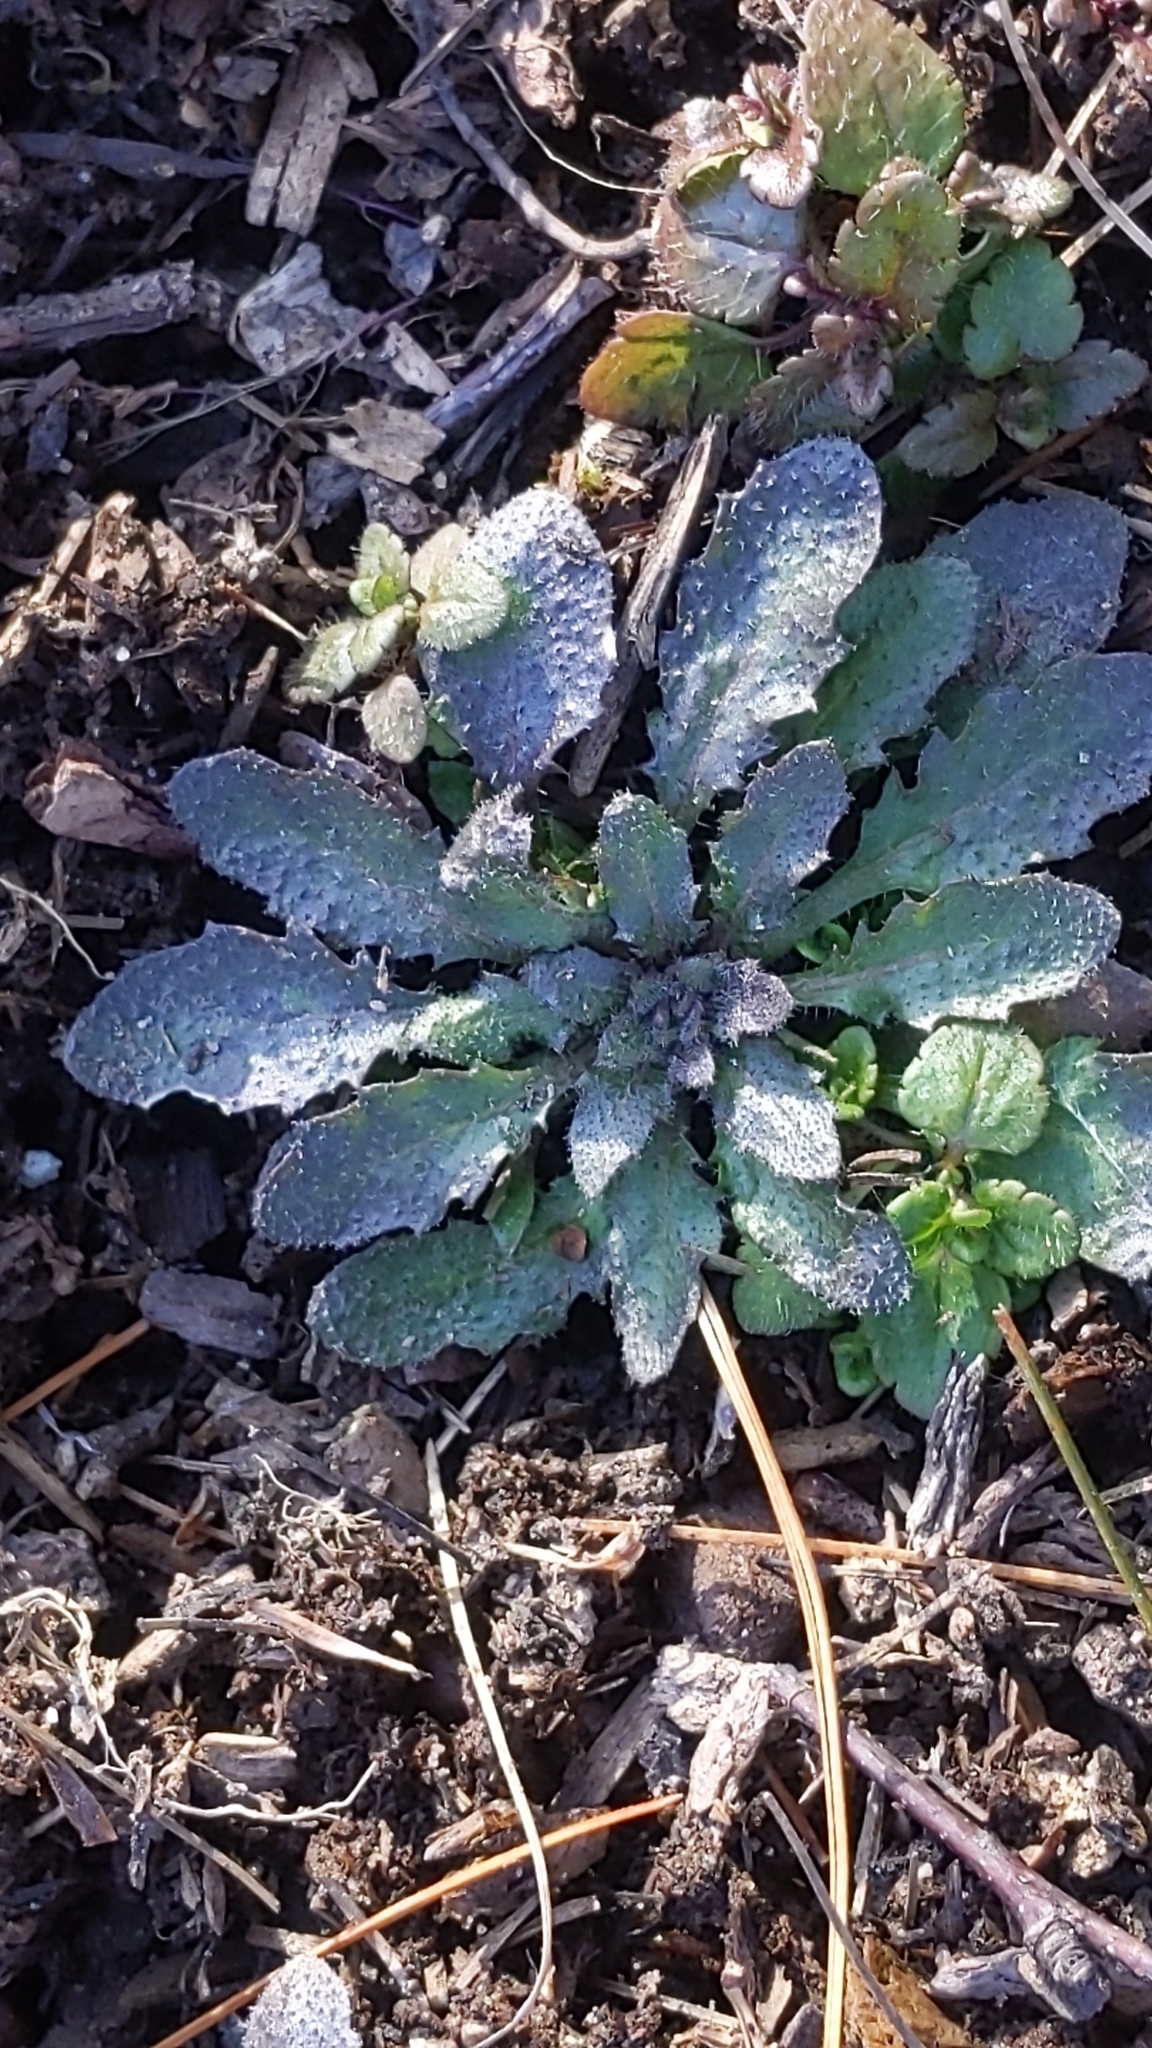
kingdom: Plantae
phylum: Tracheophyta
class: Magnoliopsida
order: Brassicales
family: Brassicaceae
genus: Arabidopsis
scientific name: Arabidopsis thaliana
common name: Thale cress
